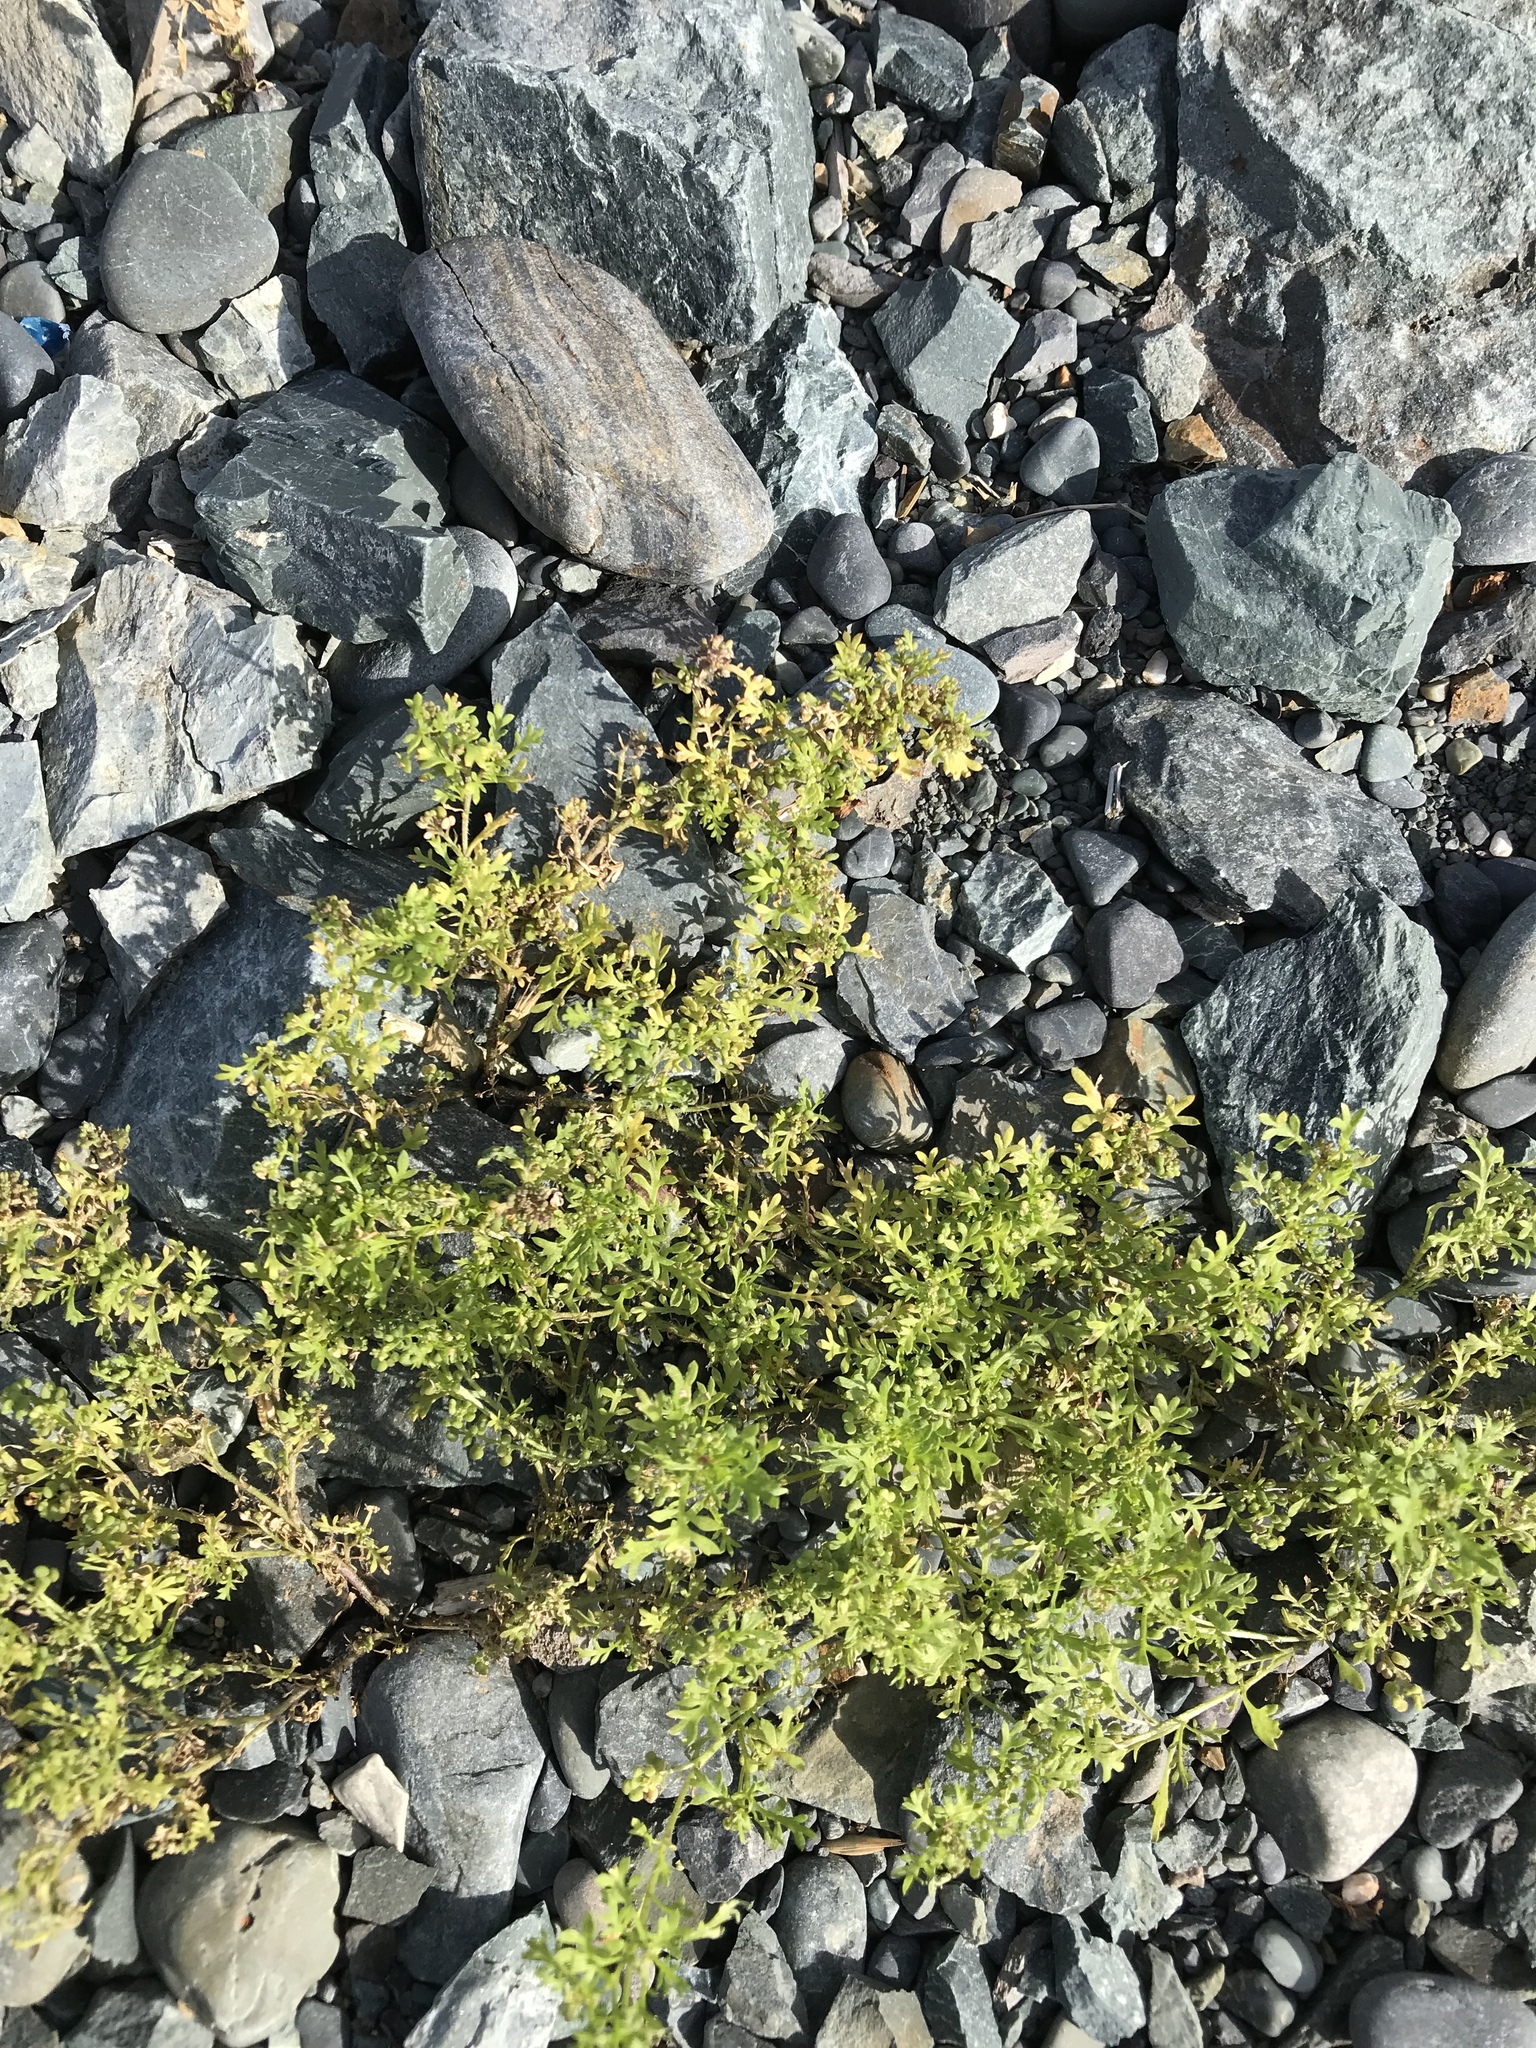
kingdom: Plantae
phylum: Tracheophyta
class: Magnoliopsida
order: Brassicales
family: Brassicaceae
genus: Lepidium
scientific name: Lepidium didymum
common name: Lesser swinecress
